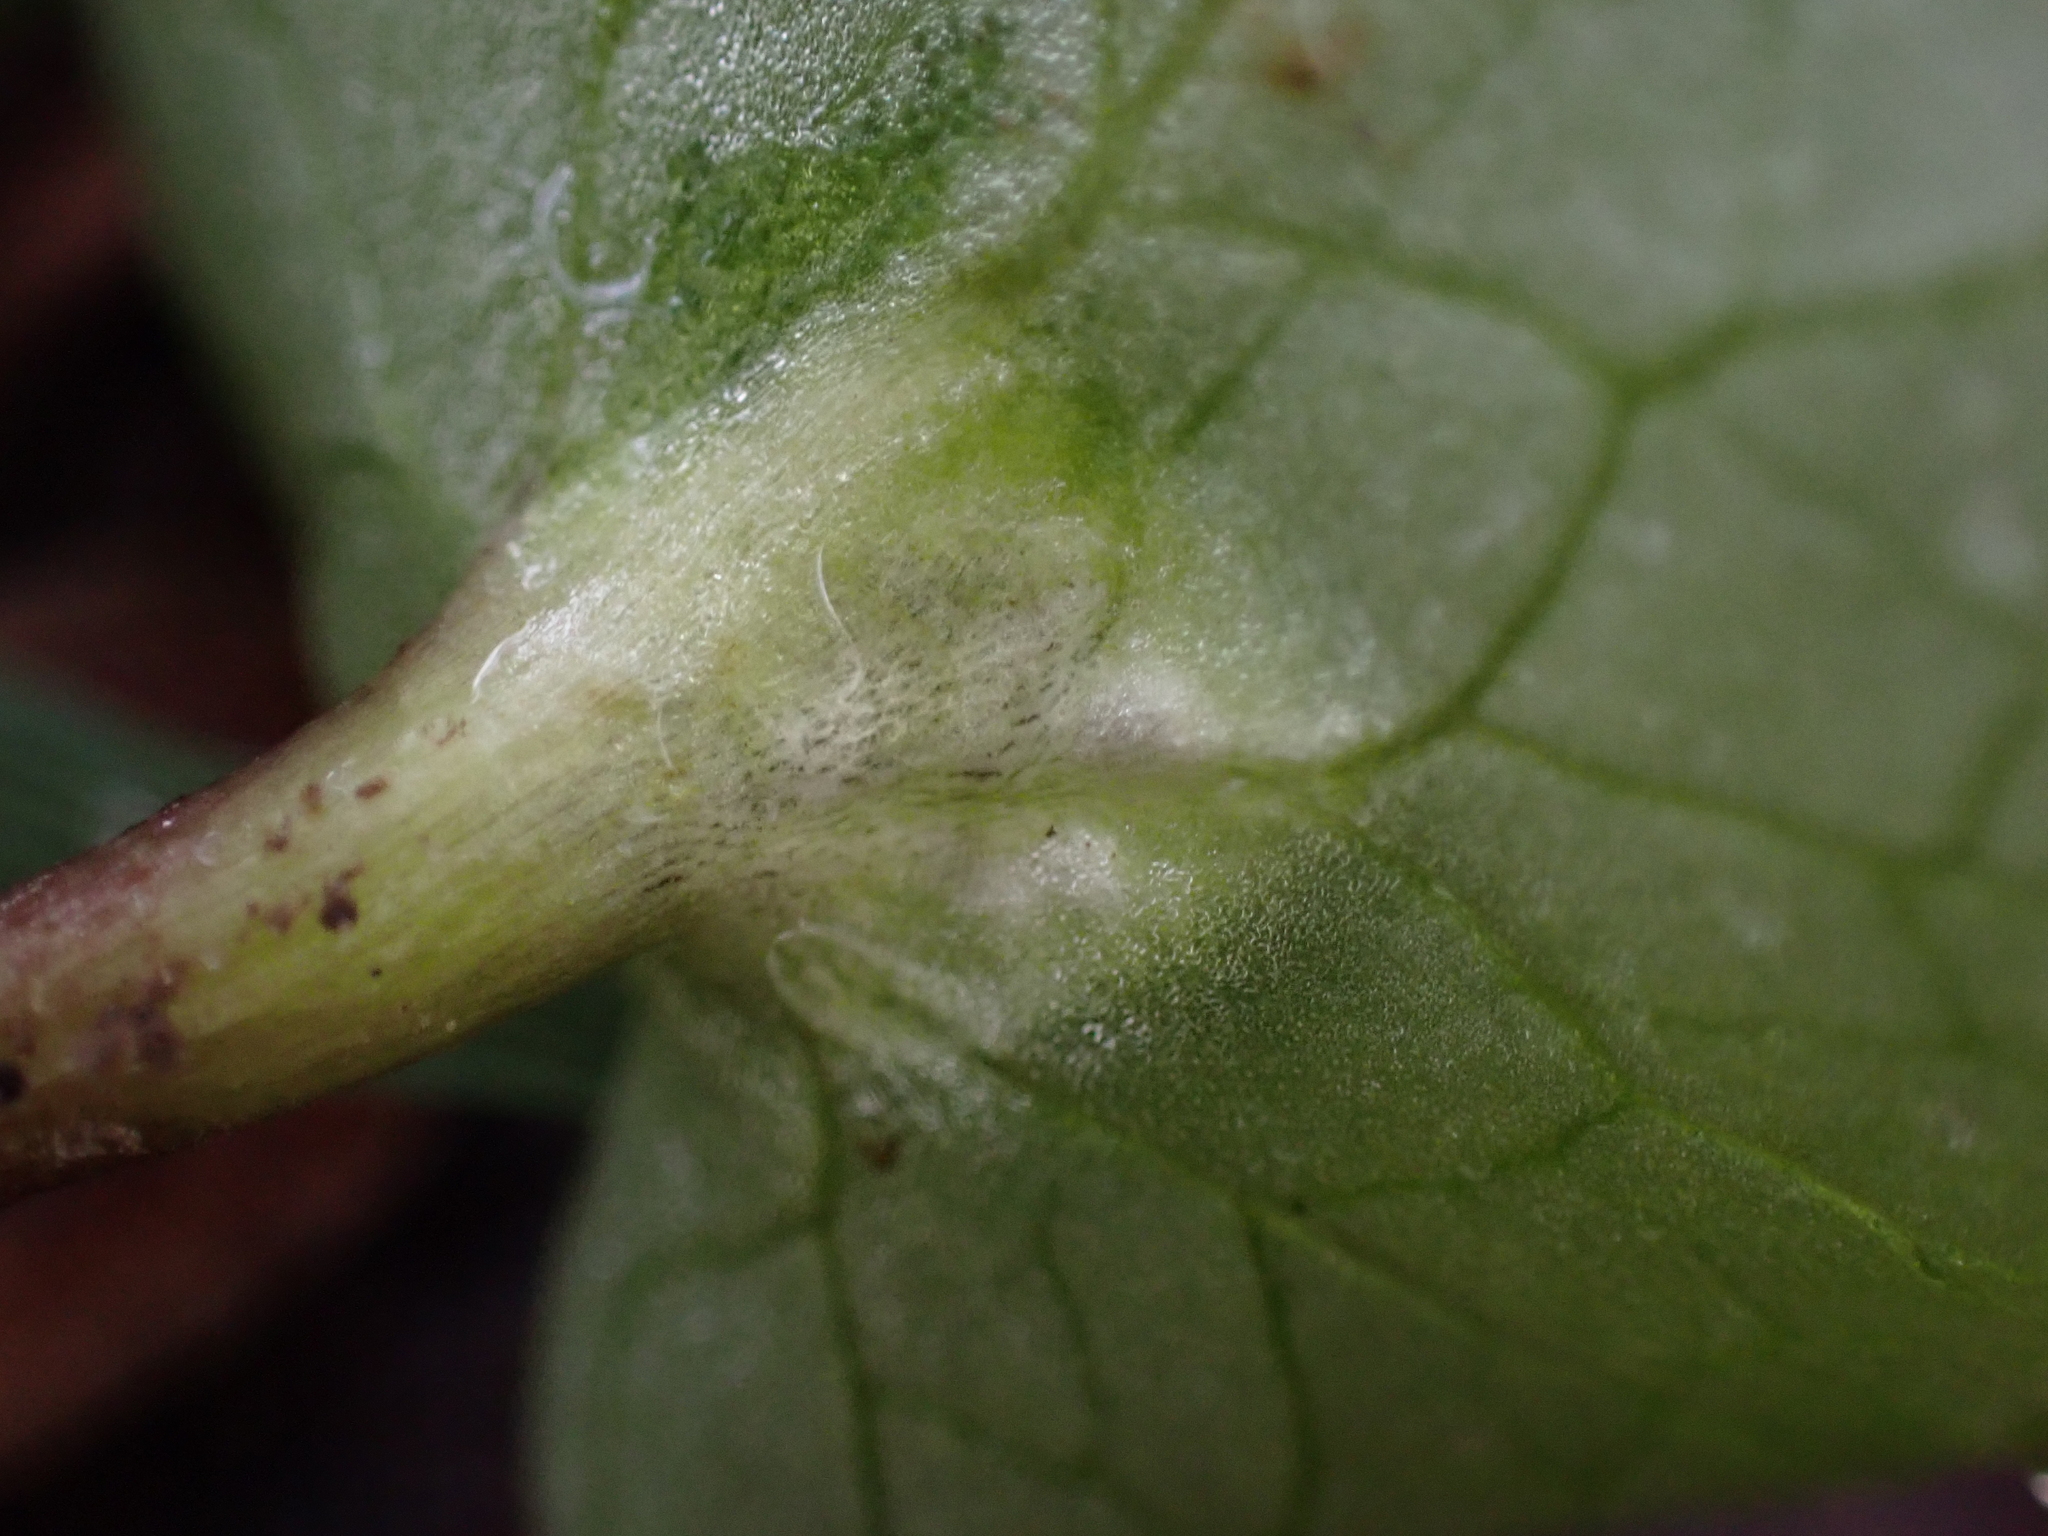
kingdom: Fungi
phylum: Basidiomycota
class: Ustilaginomycetes
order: Urocystidales
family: Urocystidaceae
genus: Urocystis
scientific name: Urocystis ficariae
